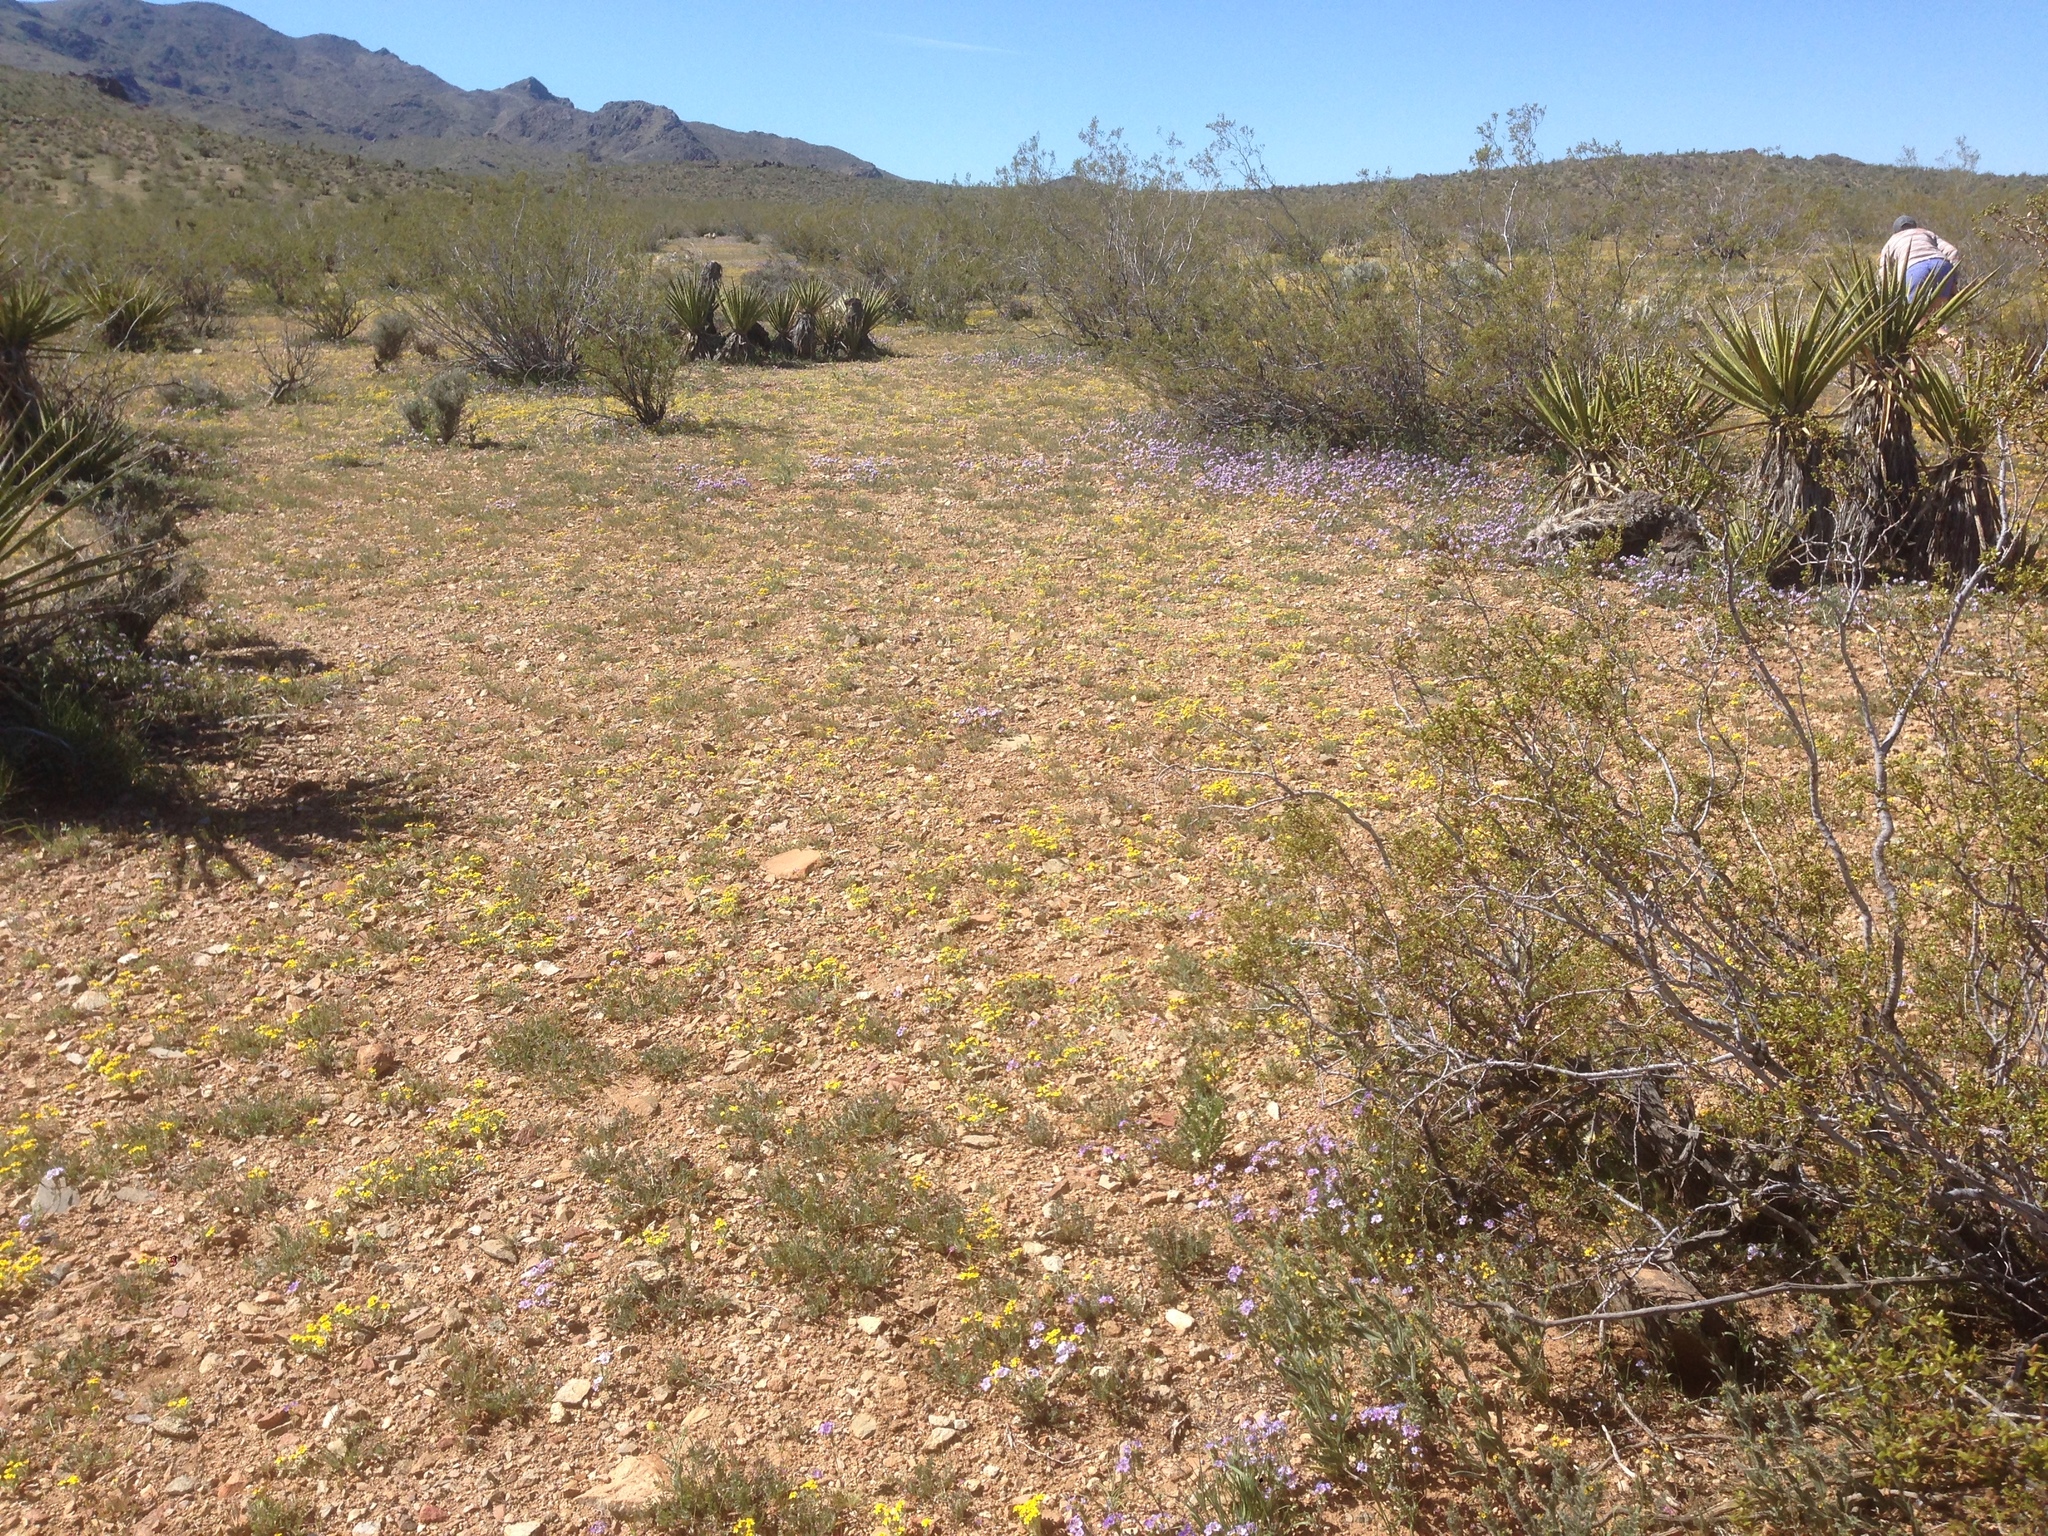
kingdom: Plantae
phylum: Tracheophyta
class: Magnoliopsida
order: Zygophyllales
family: Zygophyllaceae
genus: Larrea
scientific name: Larrea tridentata
